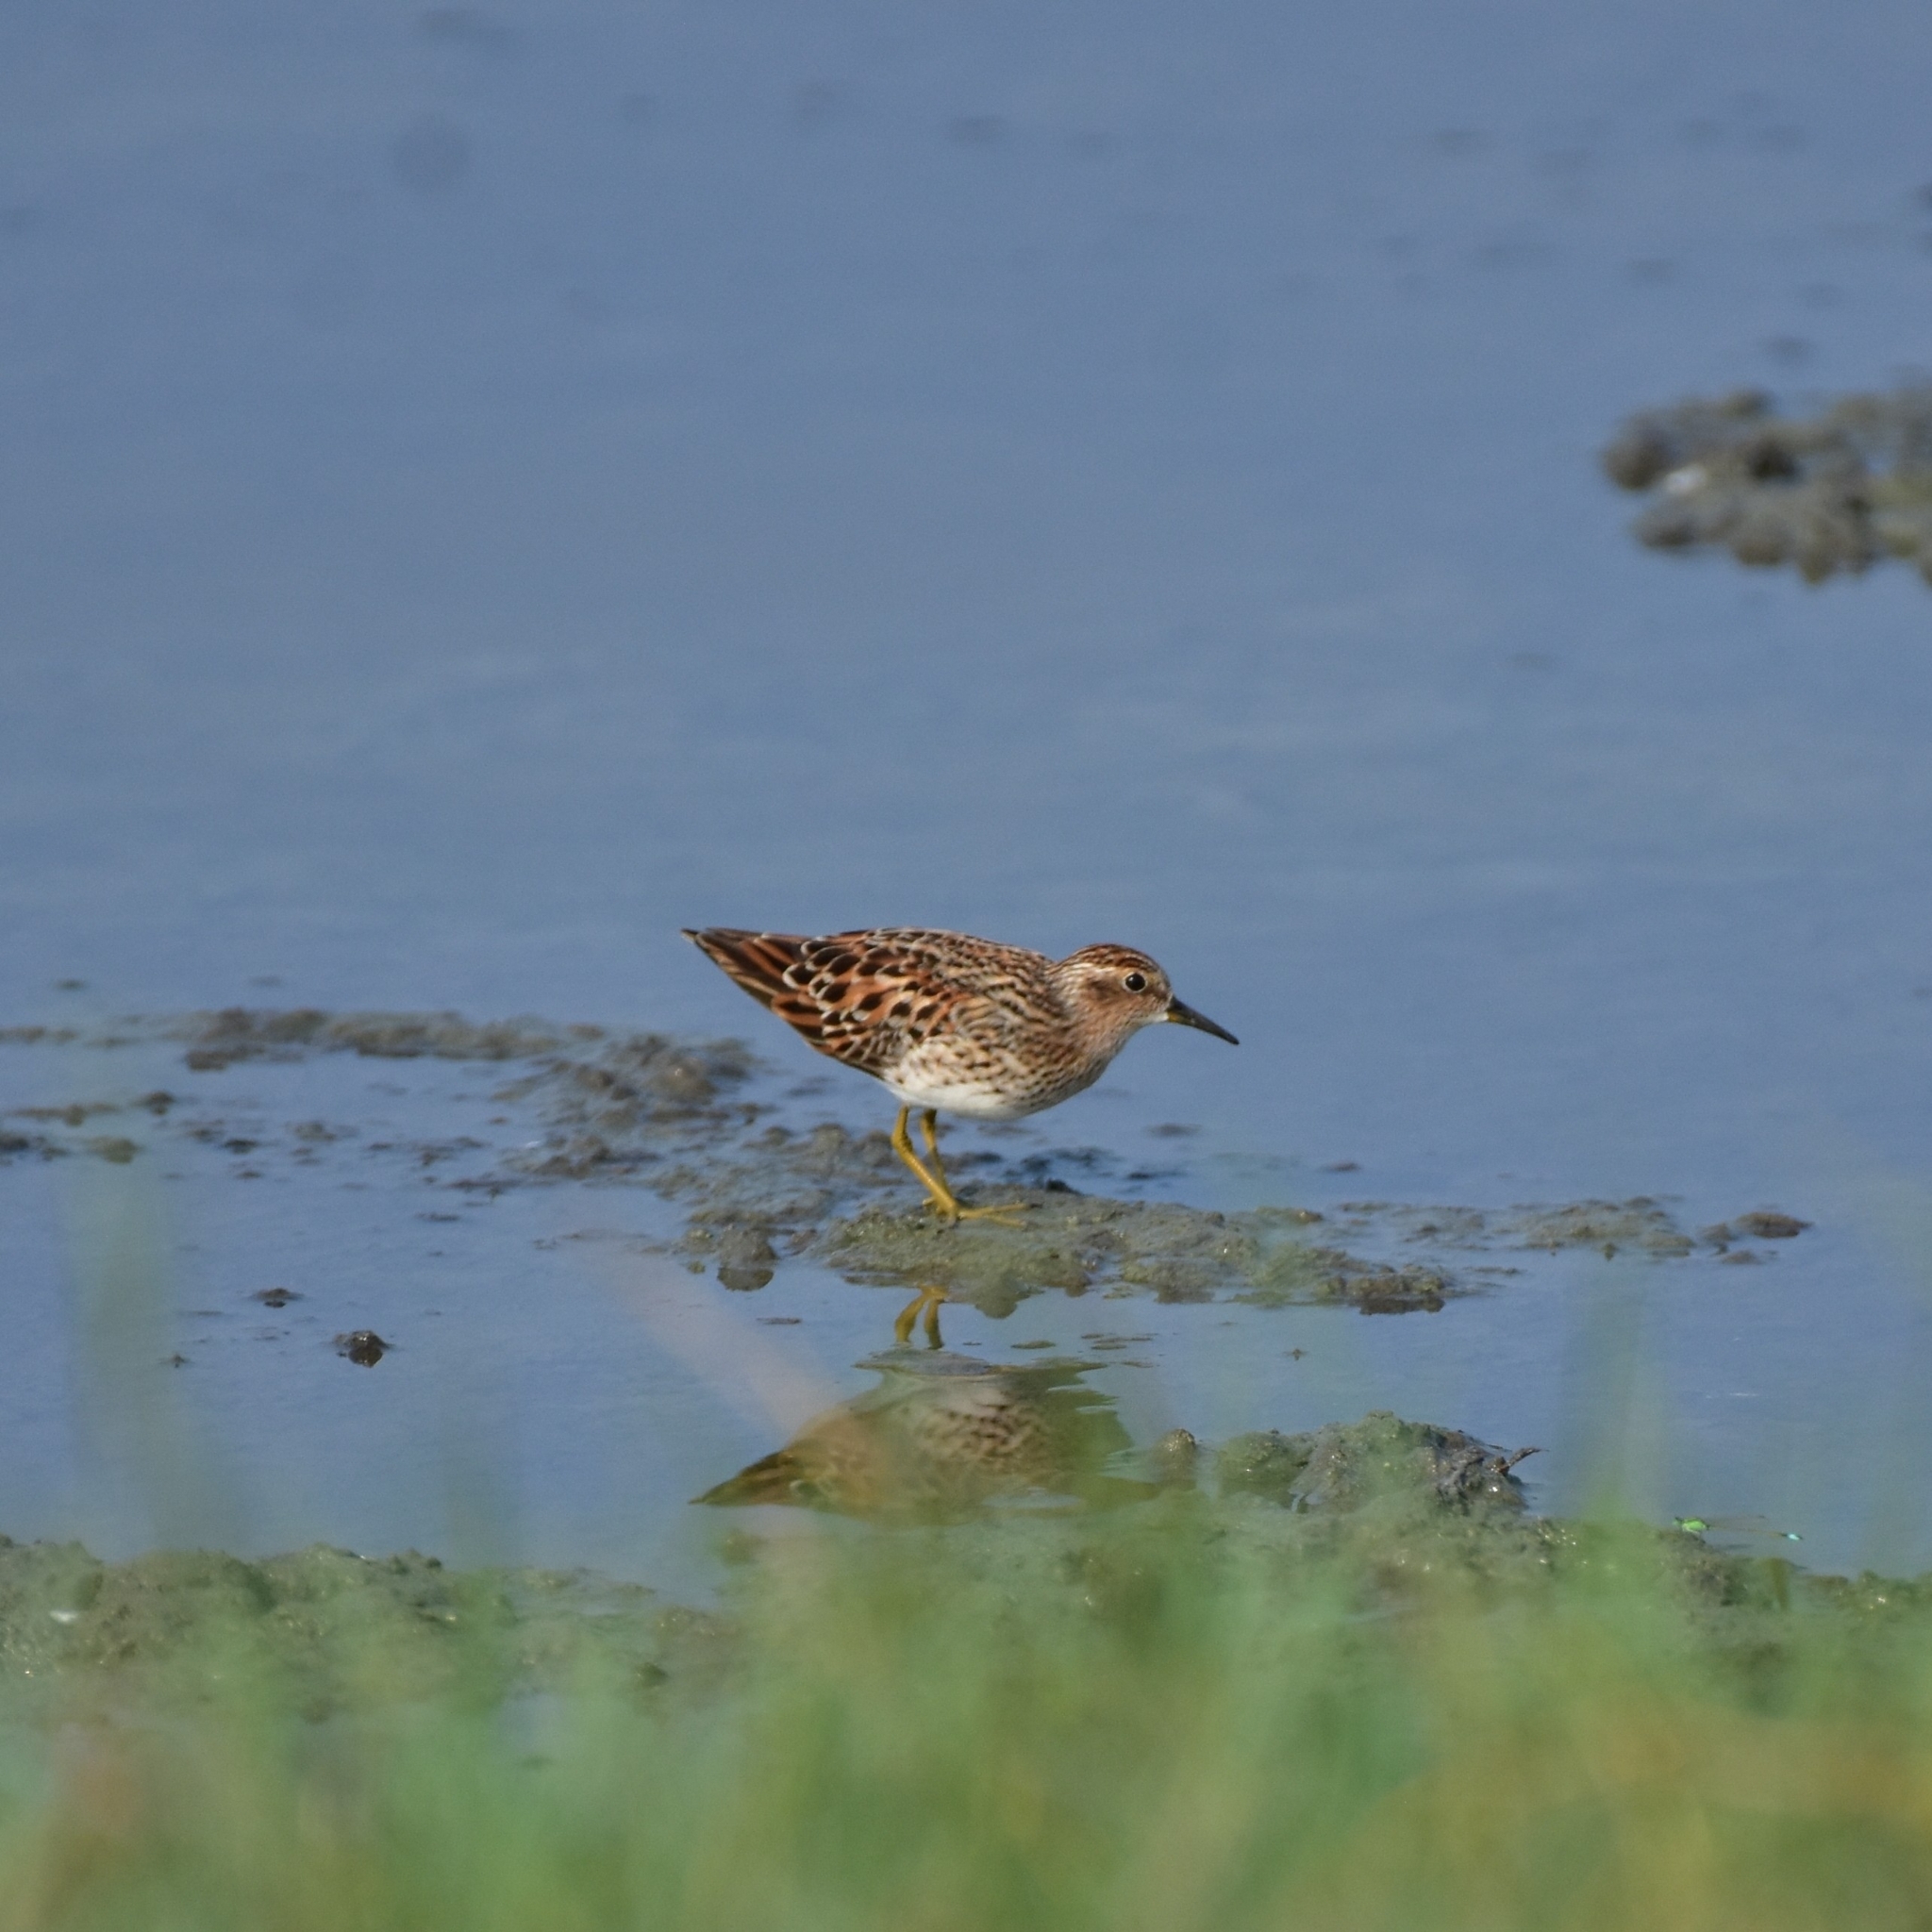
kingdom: Animalia
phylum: Chordata
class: Aves
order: Charadriiformes
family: Scolopacidae
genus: Calidris
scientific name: Calidris subminuta
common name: Long-toed stint
